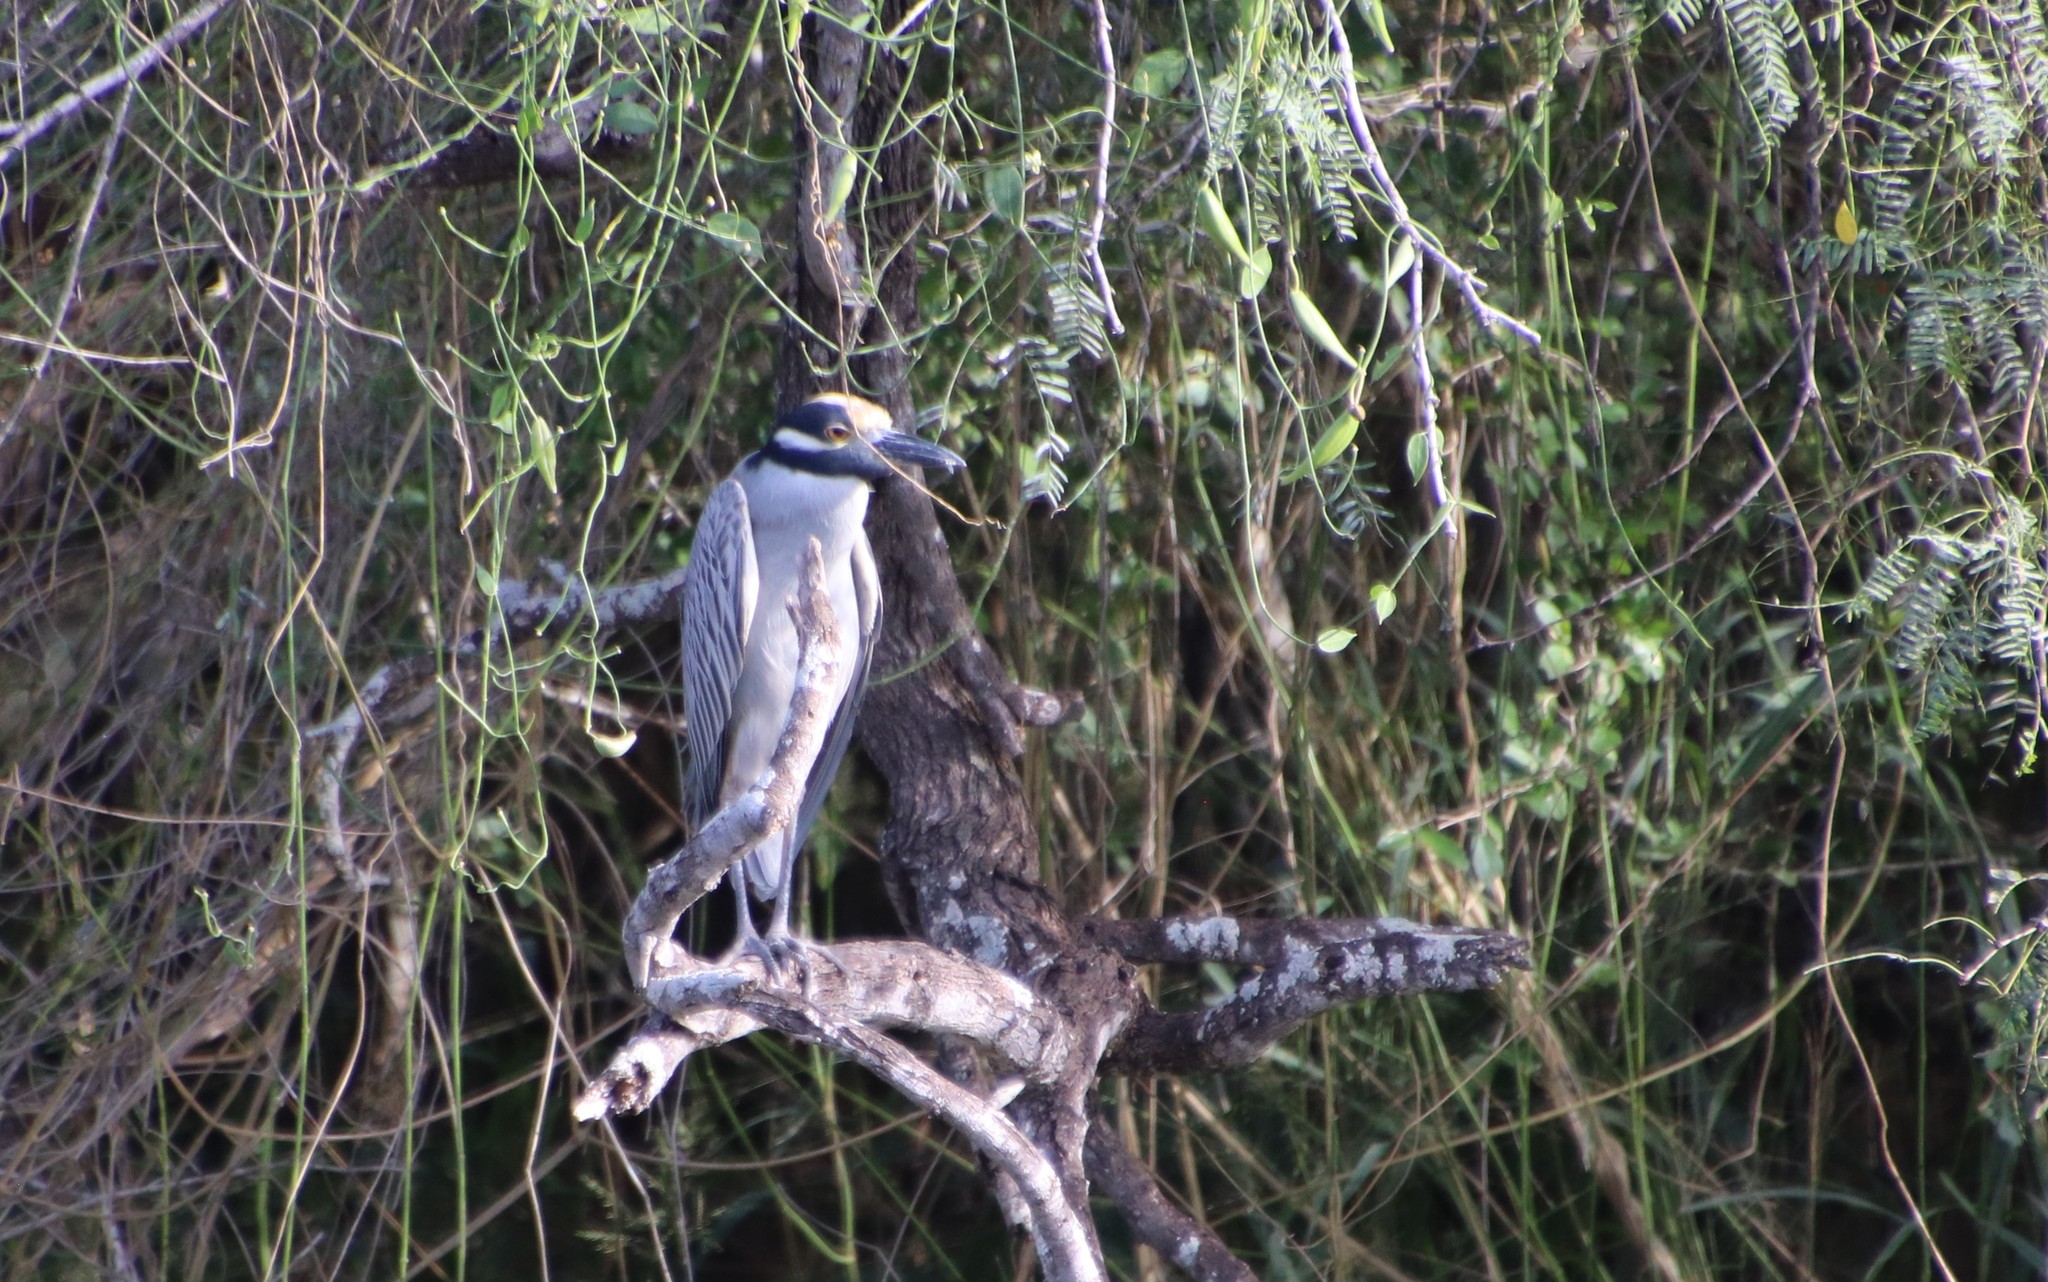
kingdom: Animalia
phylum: Chordata
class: Aves
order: Pelecaniformes
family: Ardeidae
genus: Nyctanassa
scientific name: Nyctanassa violacea
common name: Yellow-crowned night heron
